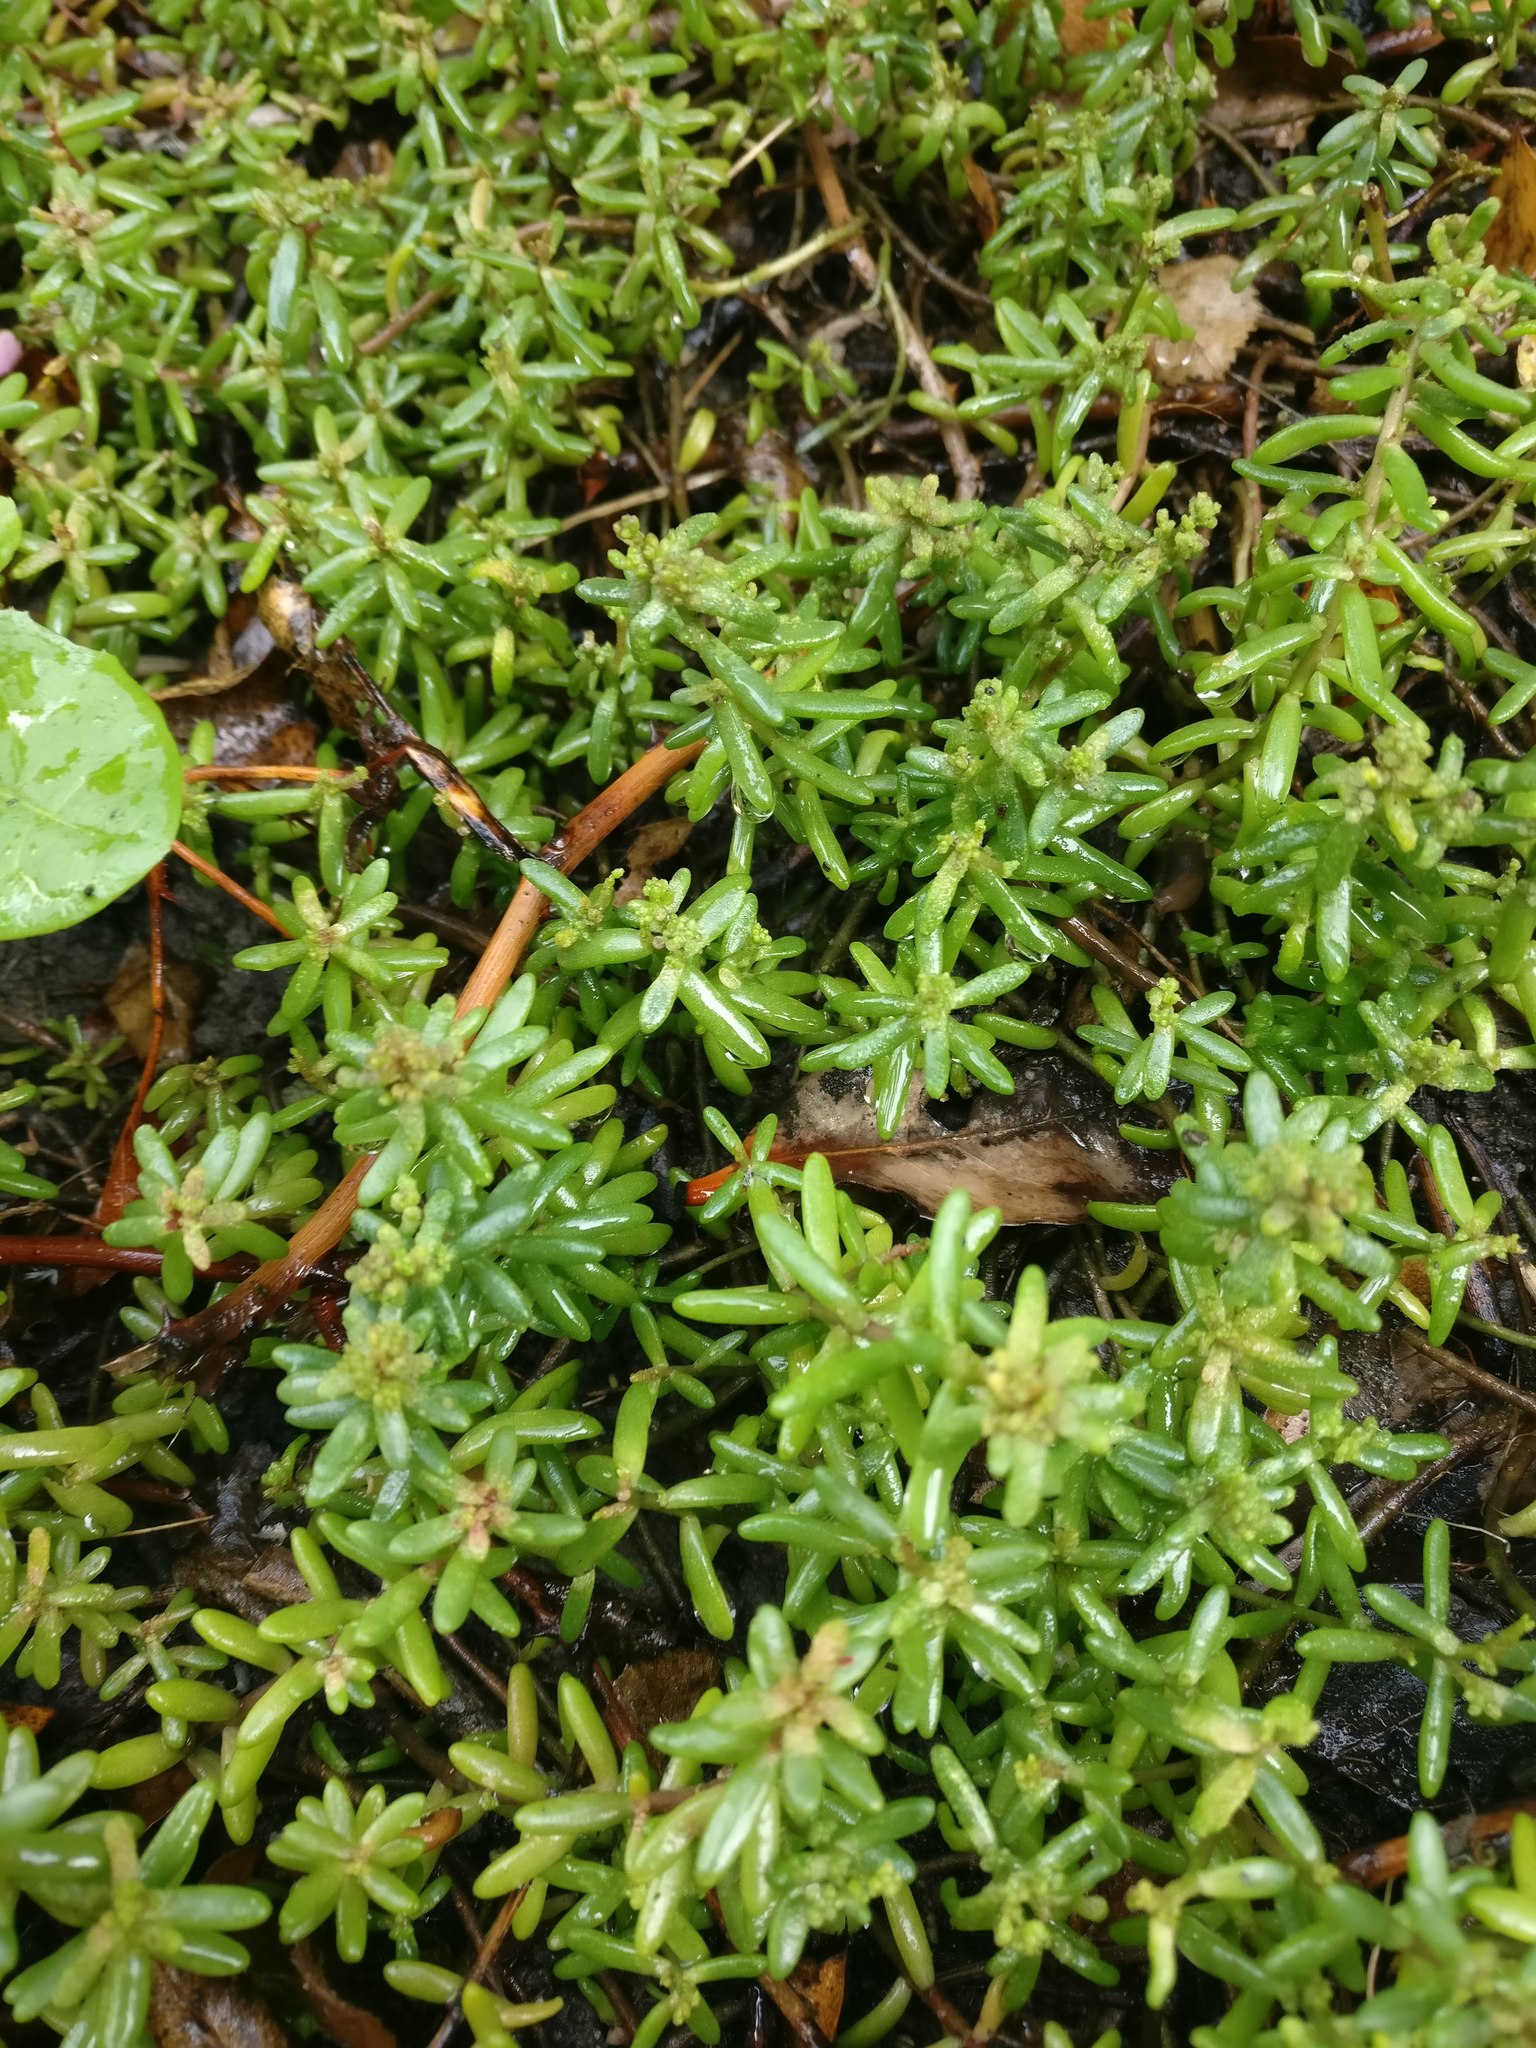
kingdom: Plantae
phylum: Tracheophyta
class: Magnoliopsida
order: Saxifragales
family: Crassulaceae
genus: Sedum
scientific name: Sedum album
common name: White stonecrop
